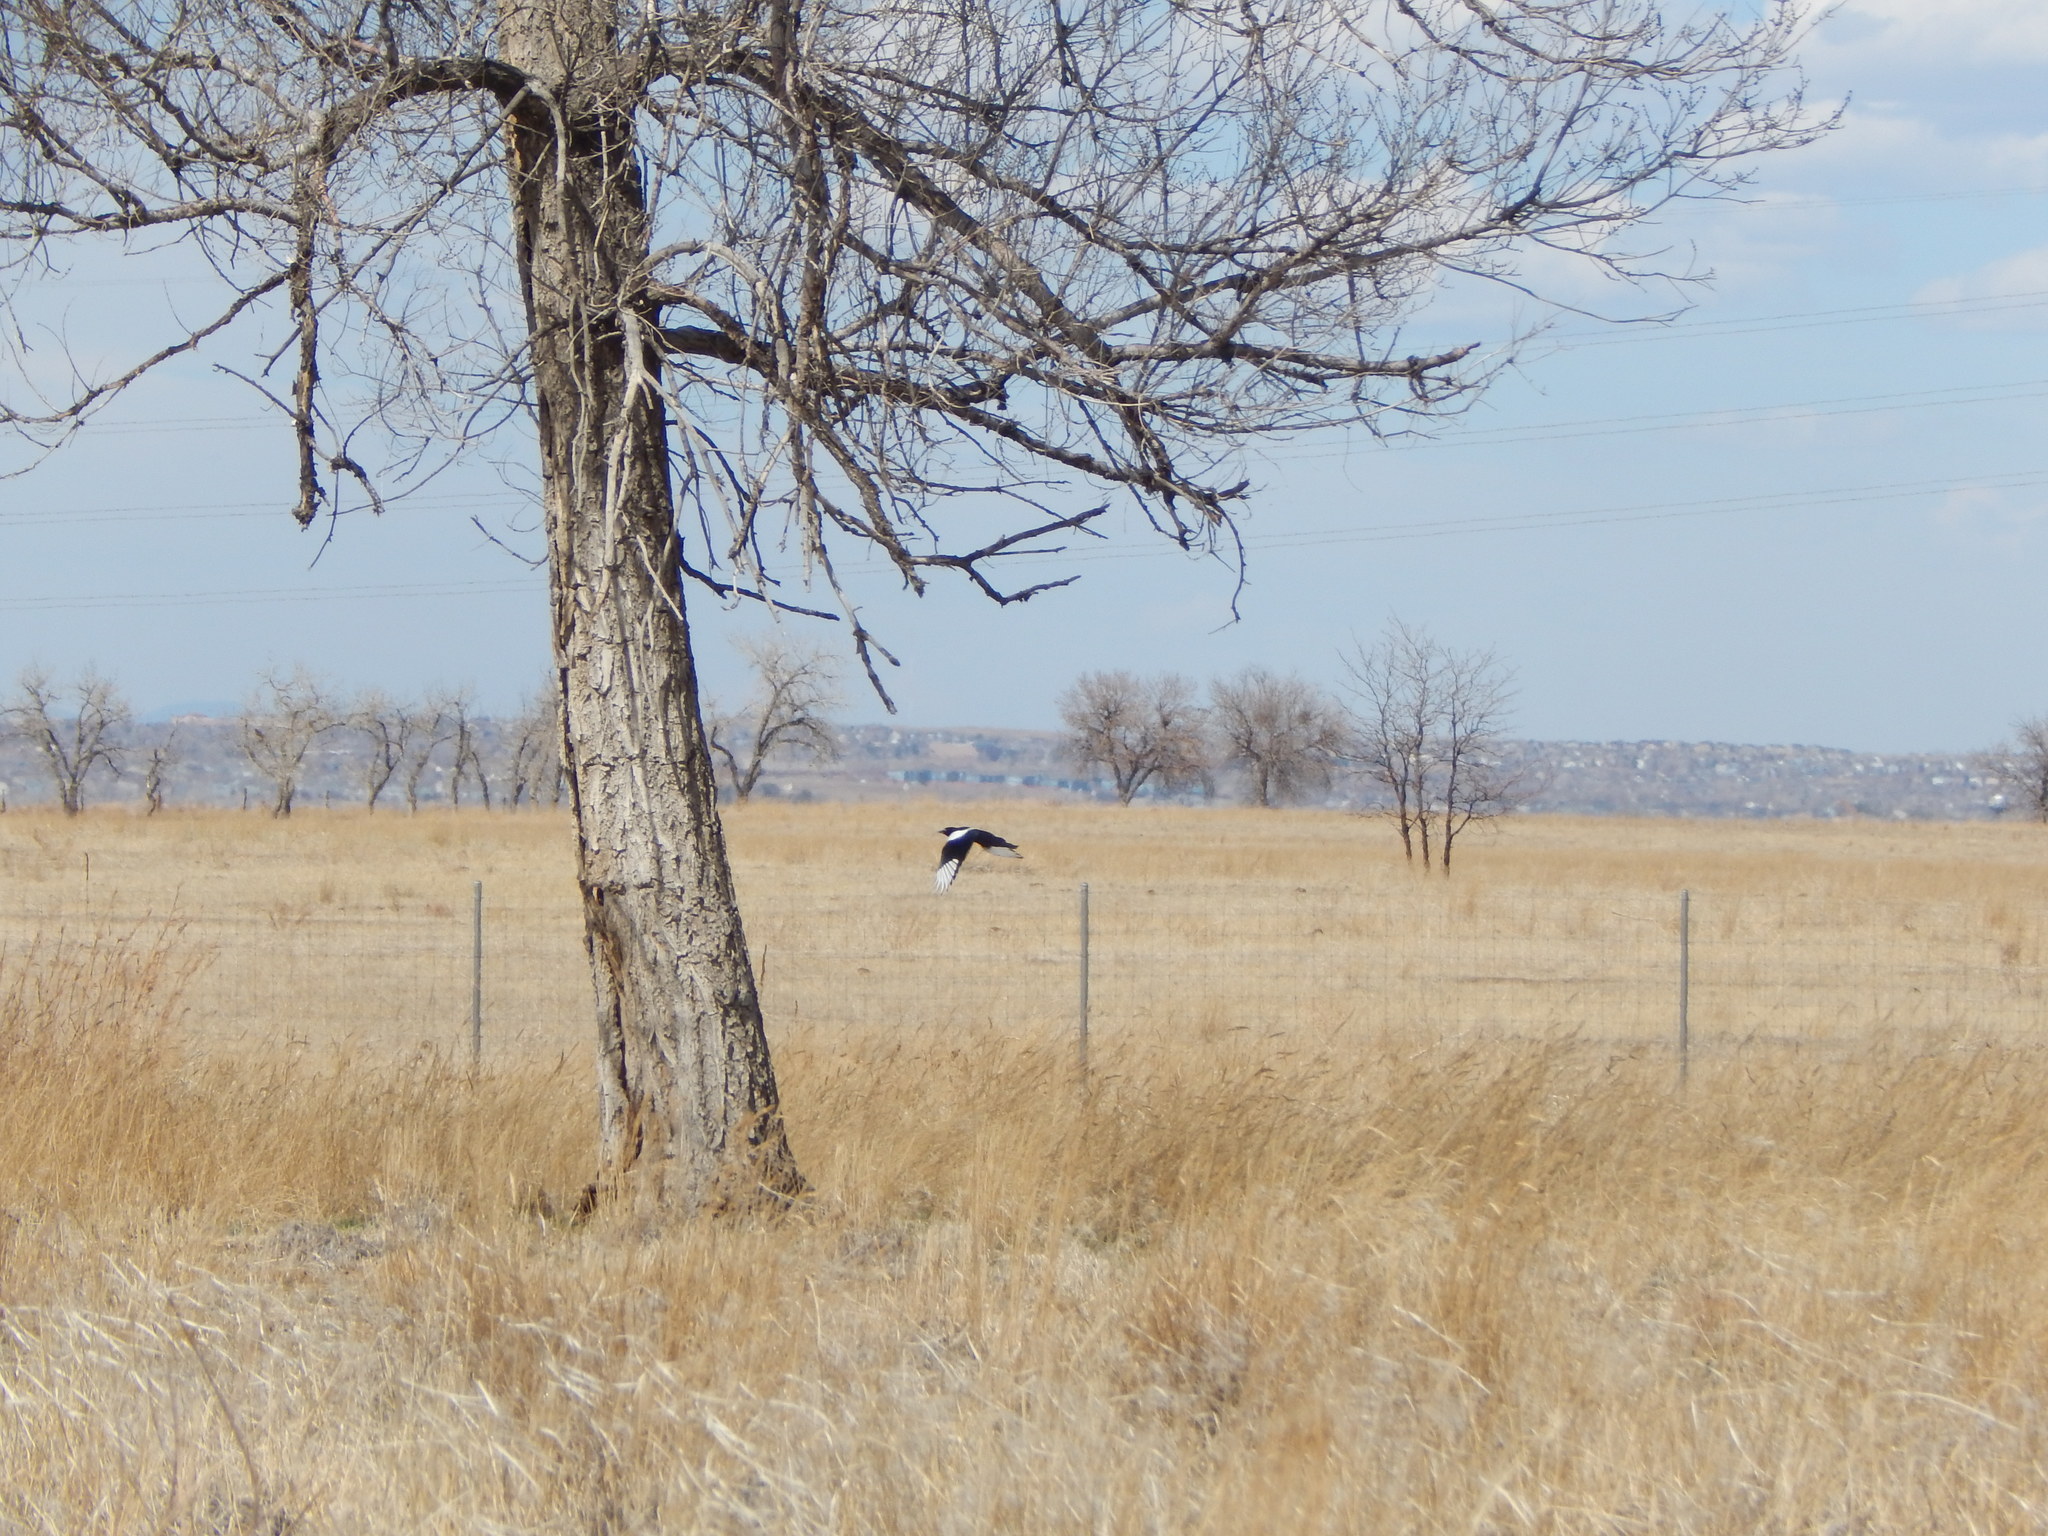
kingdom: Animalia
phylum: Chordata
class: Aves
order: Passeriformes
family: Corvidae
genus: Pica
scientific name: Pica hudsonia
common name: Black-billed magpie
